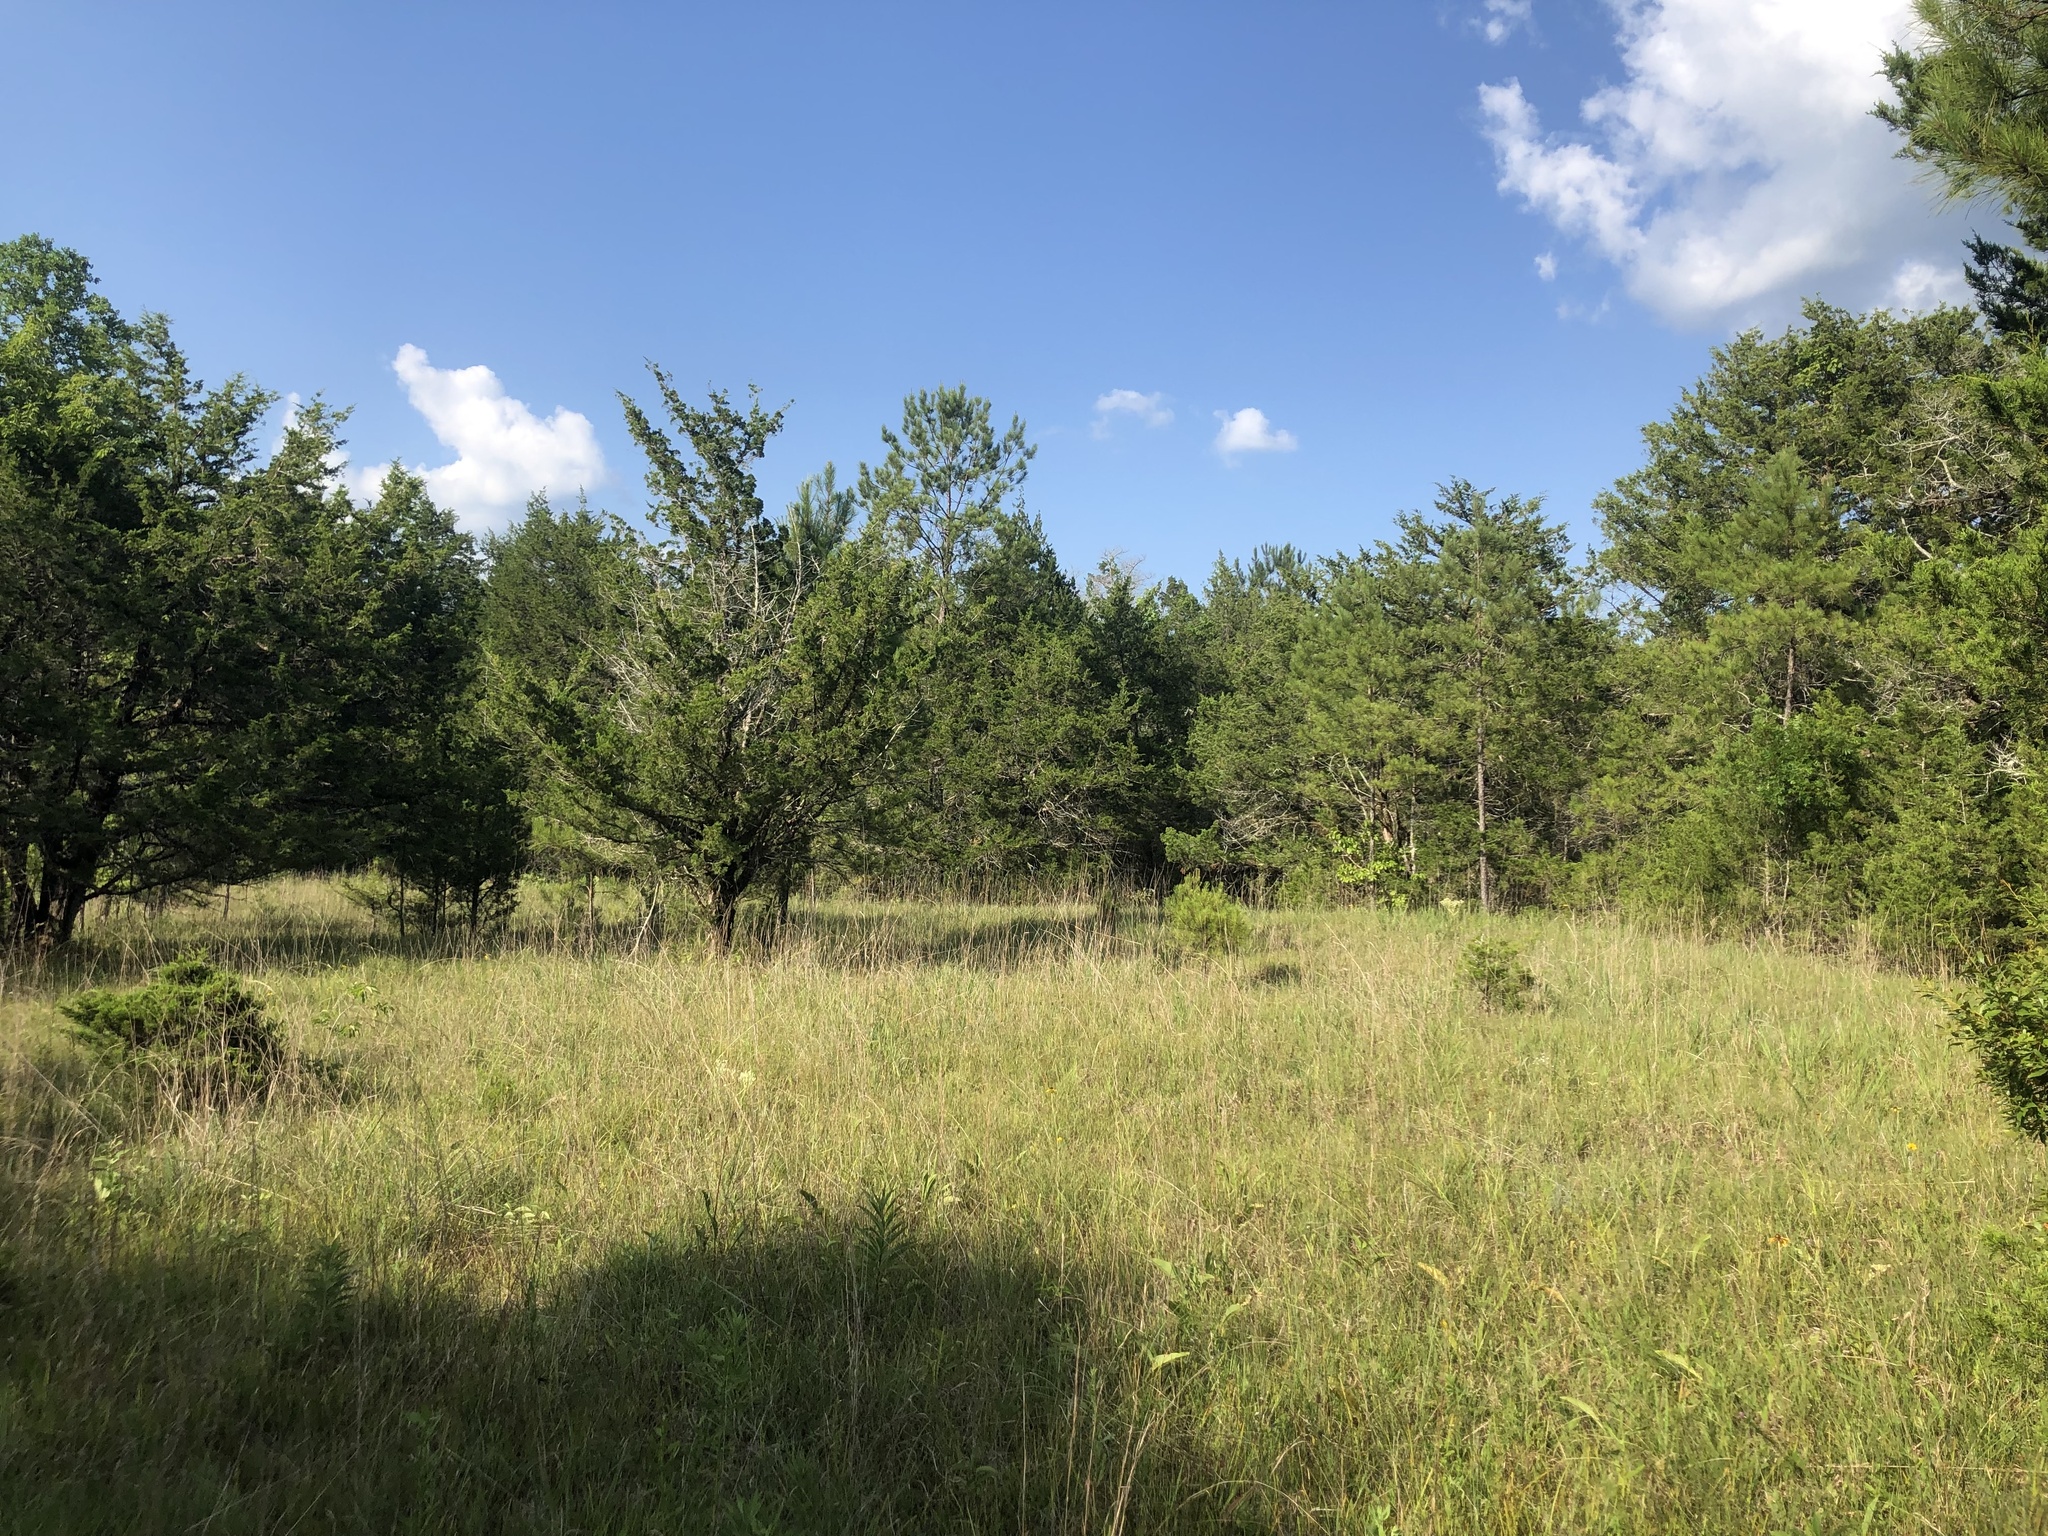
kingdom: Plantae
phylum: Tracheophyta
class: Pinopsida
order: Pinales
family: Cupressaceae
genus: Juniperus
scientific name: Juniperus virginiana
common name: Red juniper
